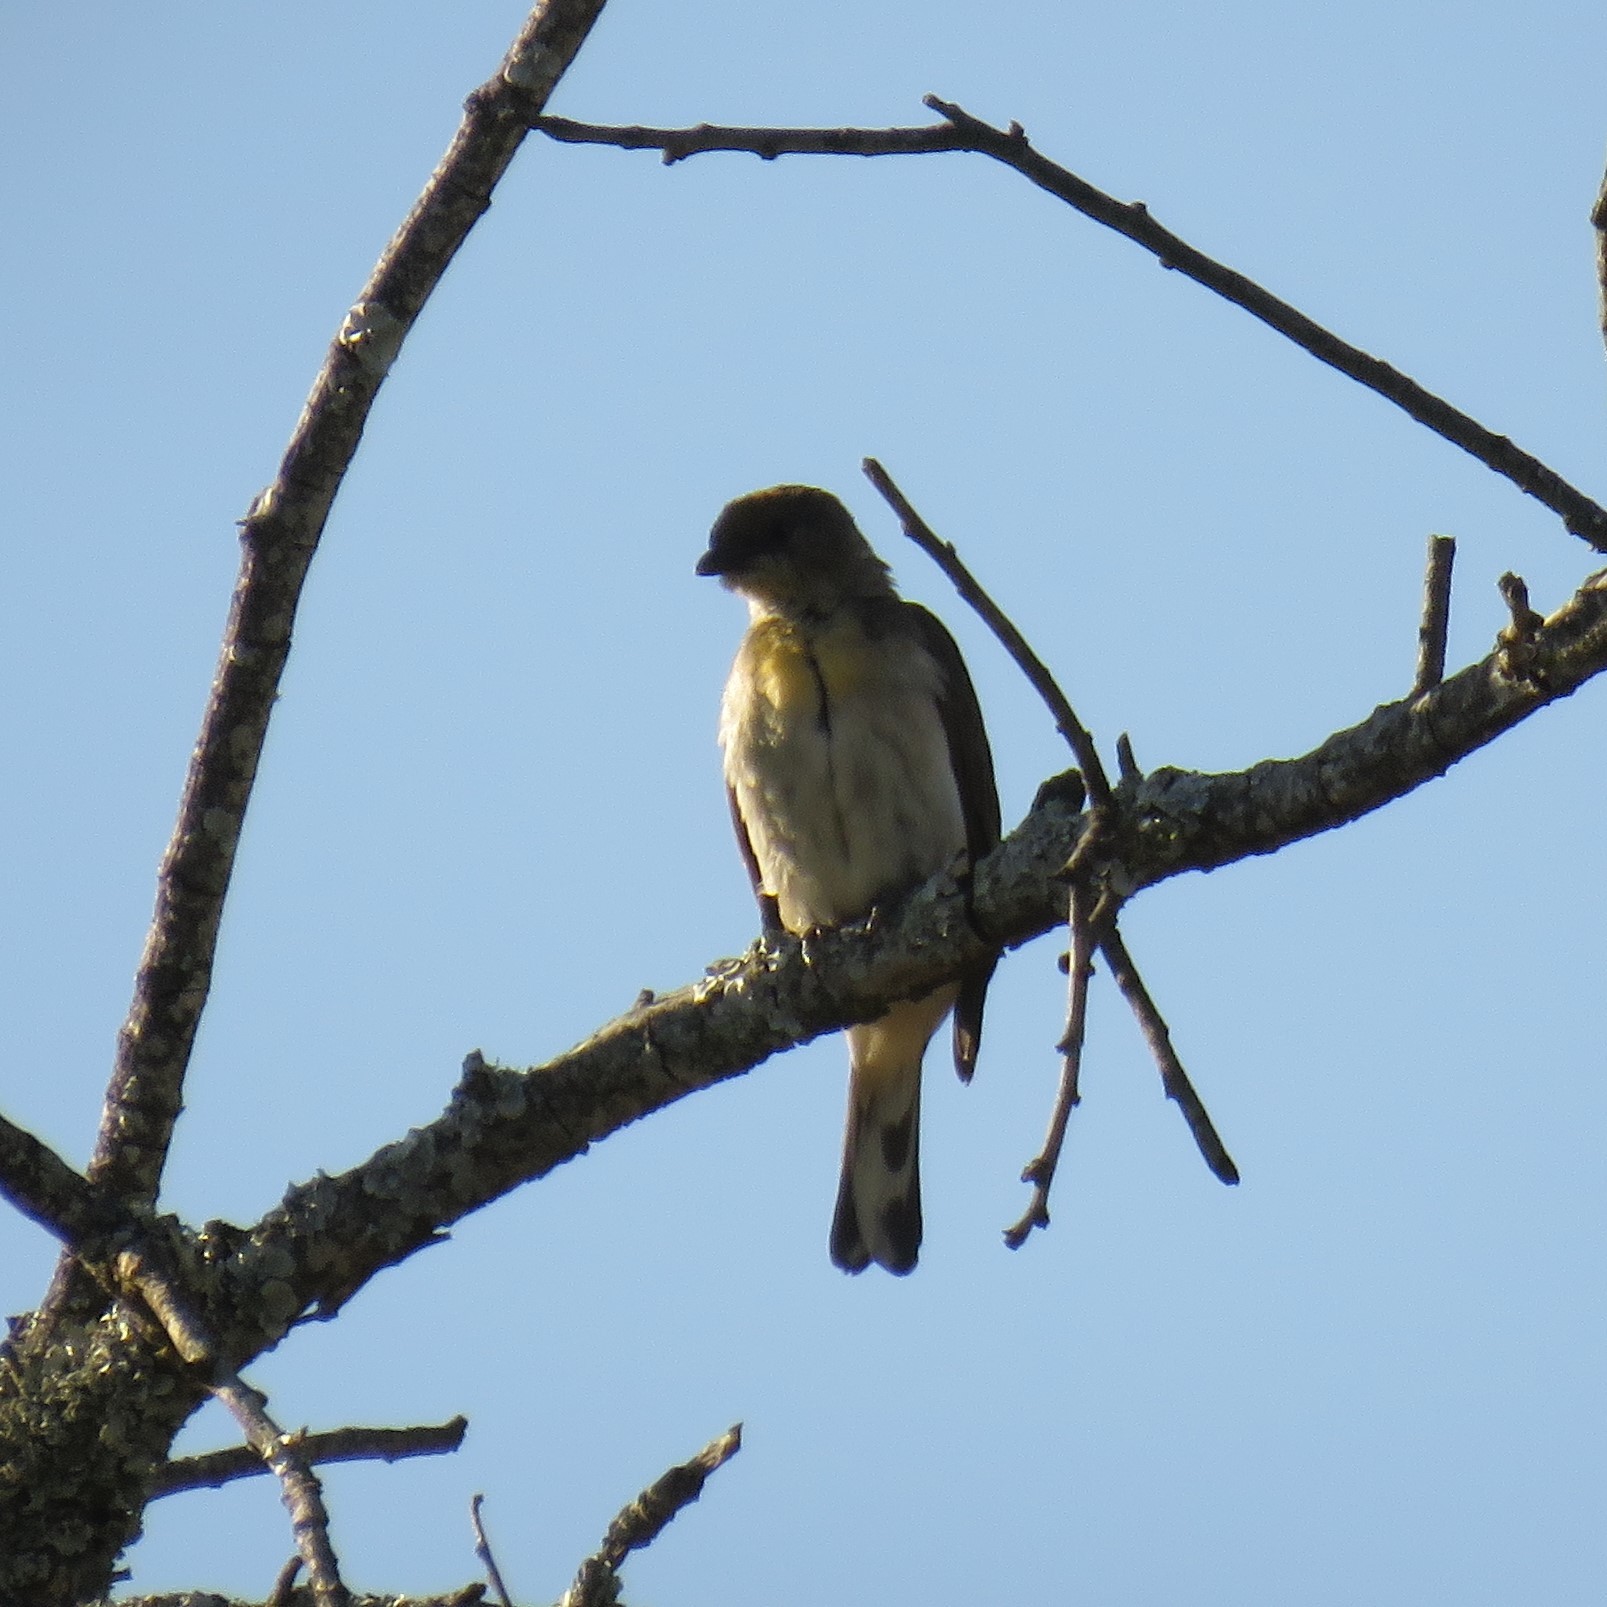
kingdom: Animalia
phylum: Chordata
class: Aves
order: Piciformes
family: Indicatoridae
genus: Indicator
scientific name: Indicator indicator
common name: Greater honeyguide
